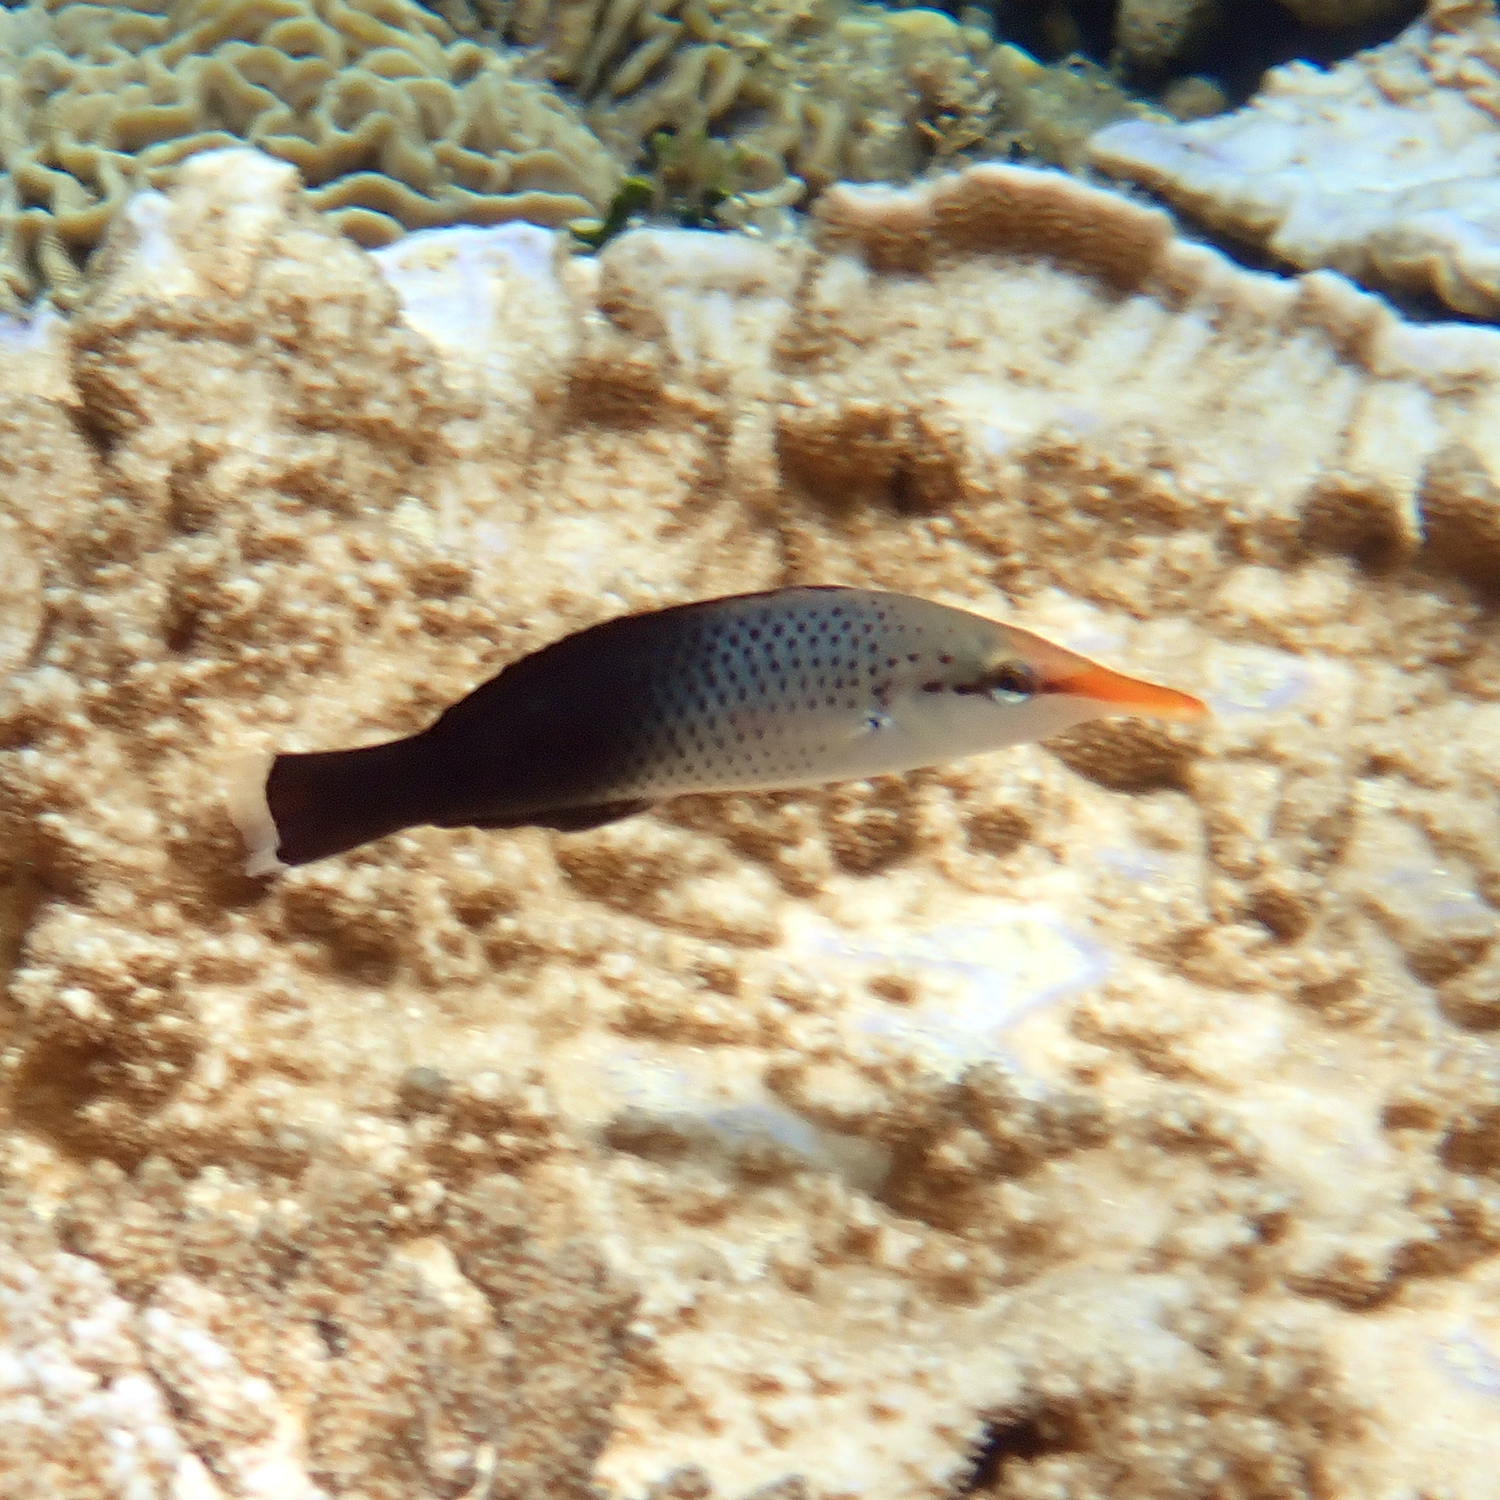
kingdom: Animalia
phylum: Chordata
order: Perciformes
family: Labridae
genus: Gomphosus
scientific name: Gomphosus varius
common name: Bird wrasse
